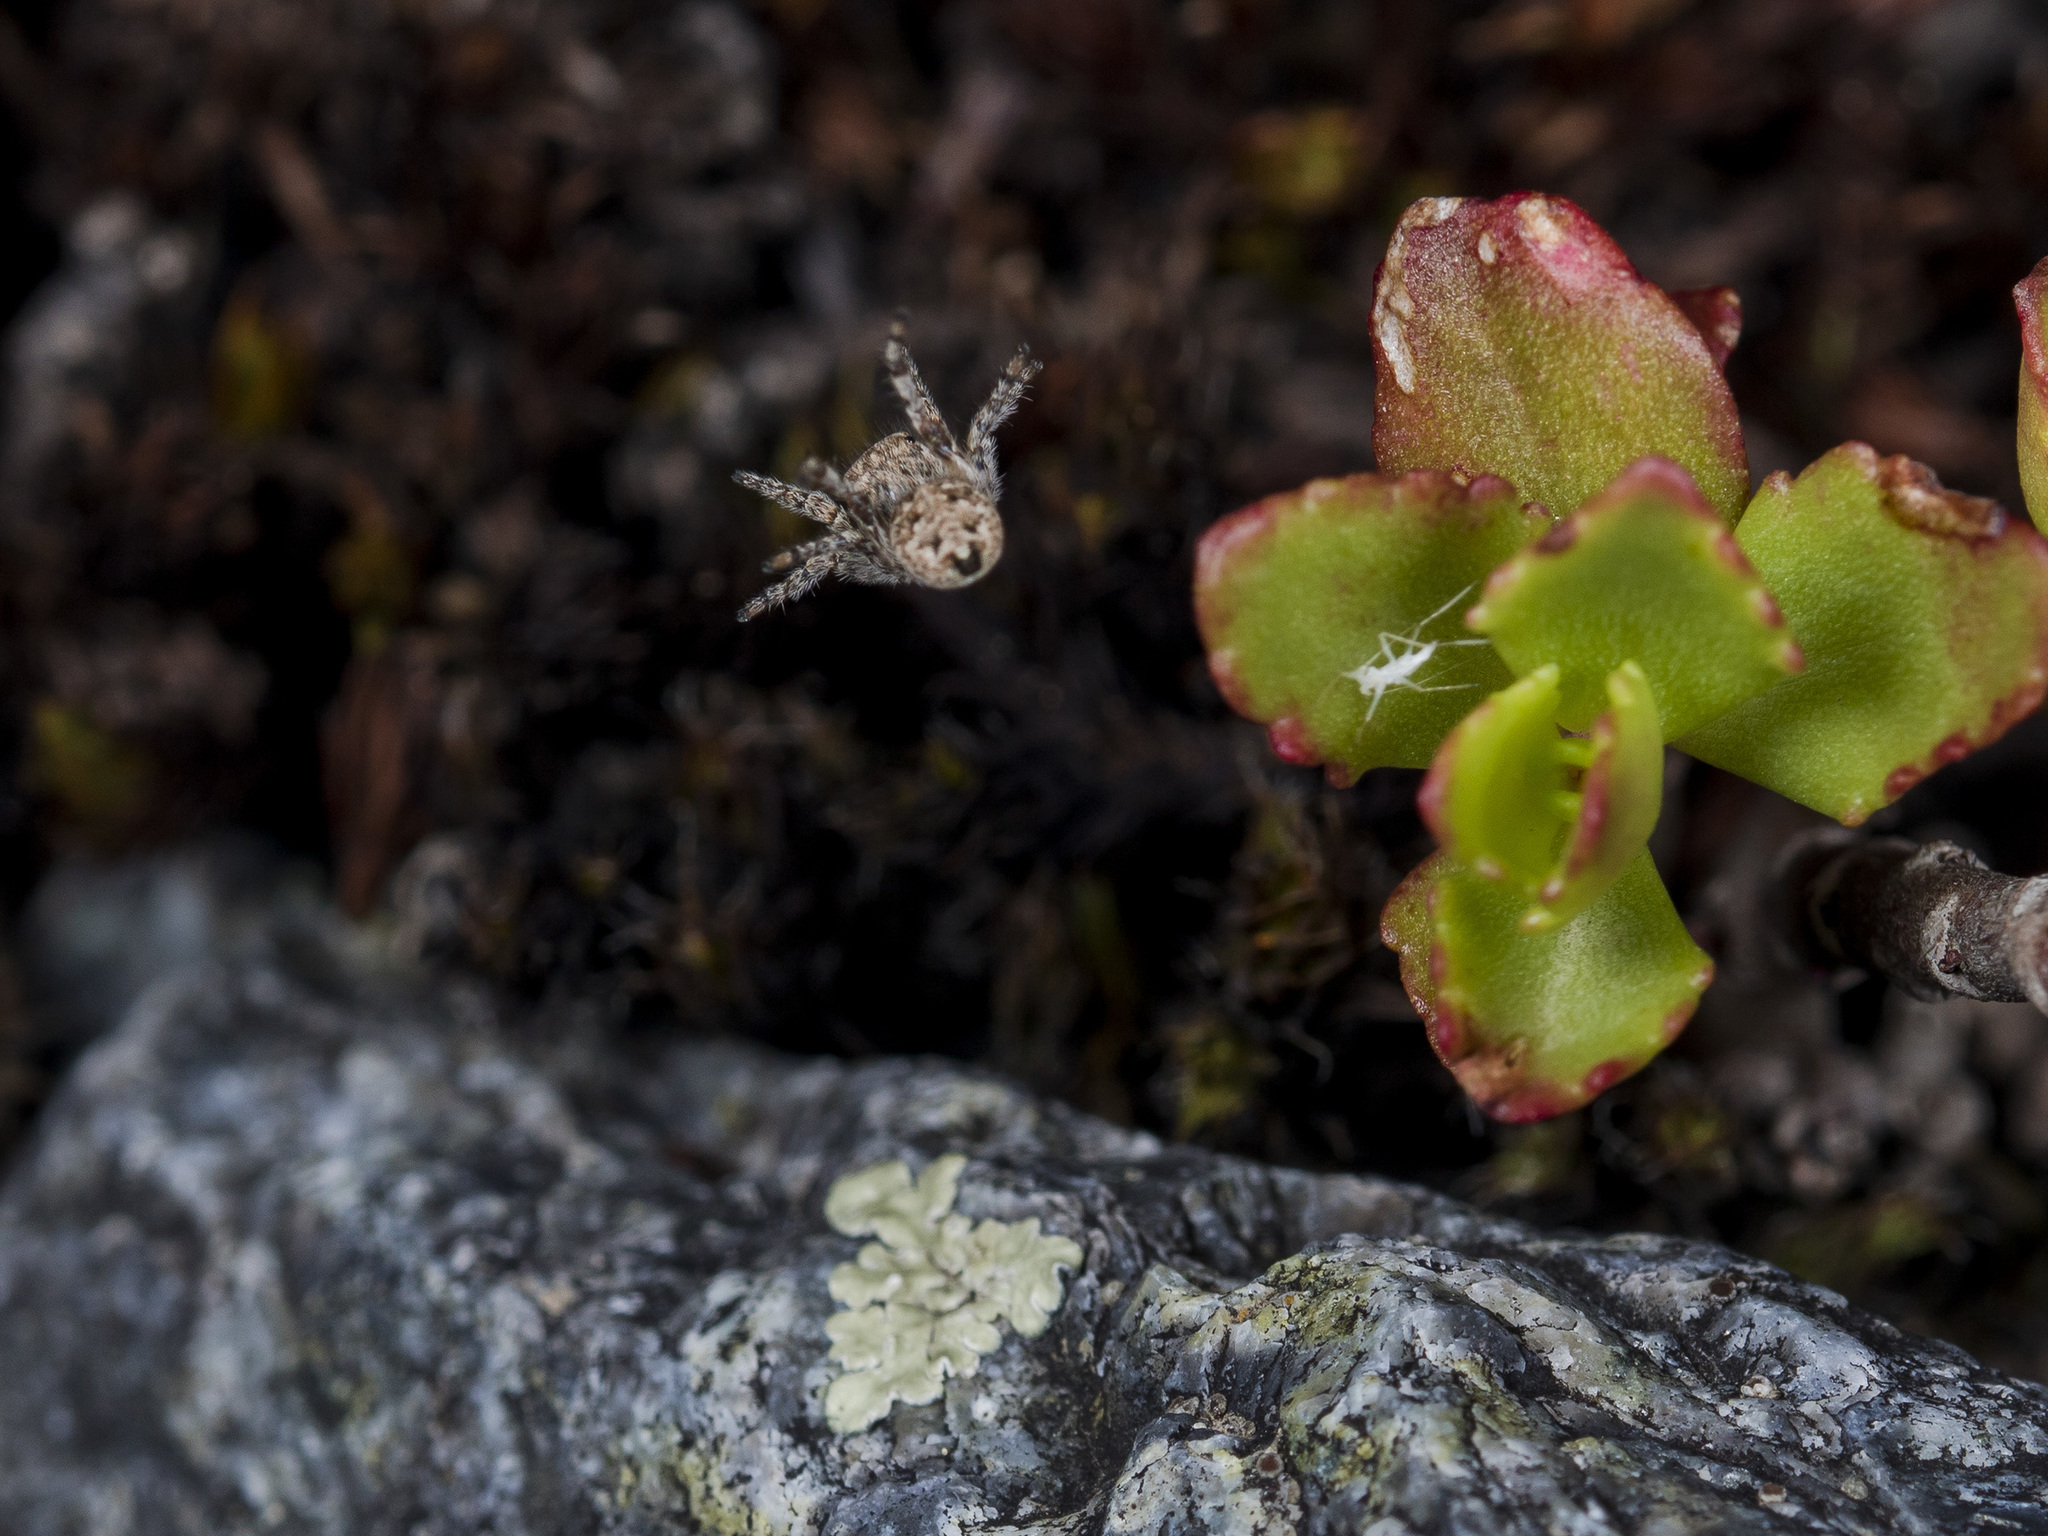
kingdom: Animalia
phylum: Arthropoda
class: Arachnida
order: Araneae
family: Salticidae
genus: Attulus
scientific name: Attulus avocator
